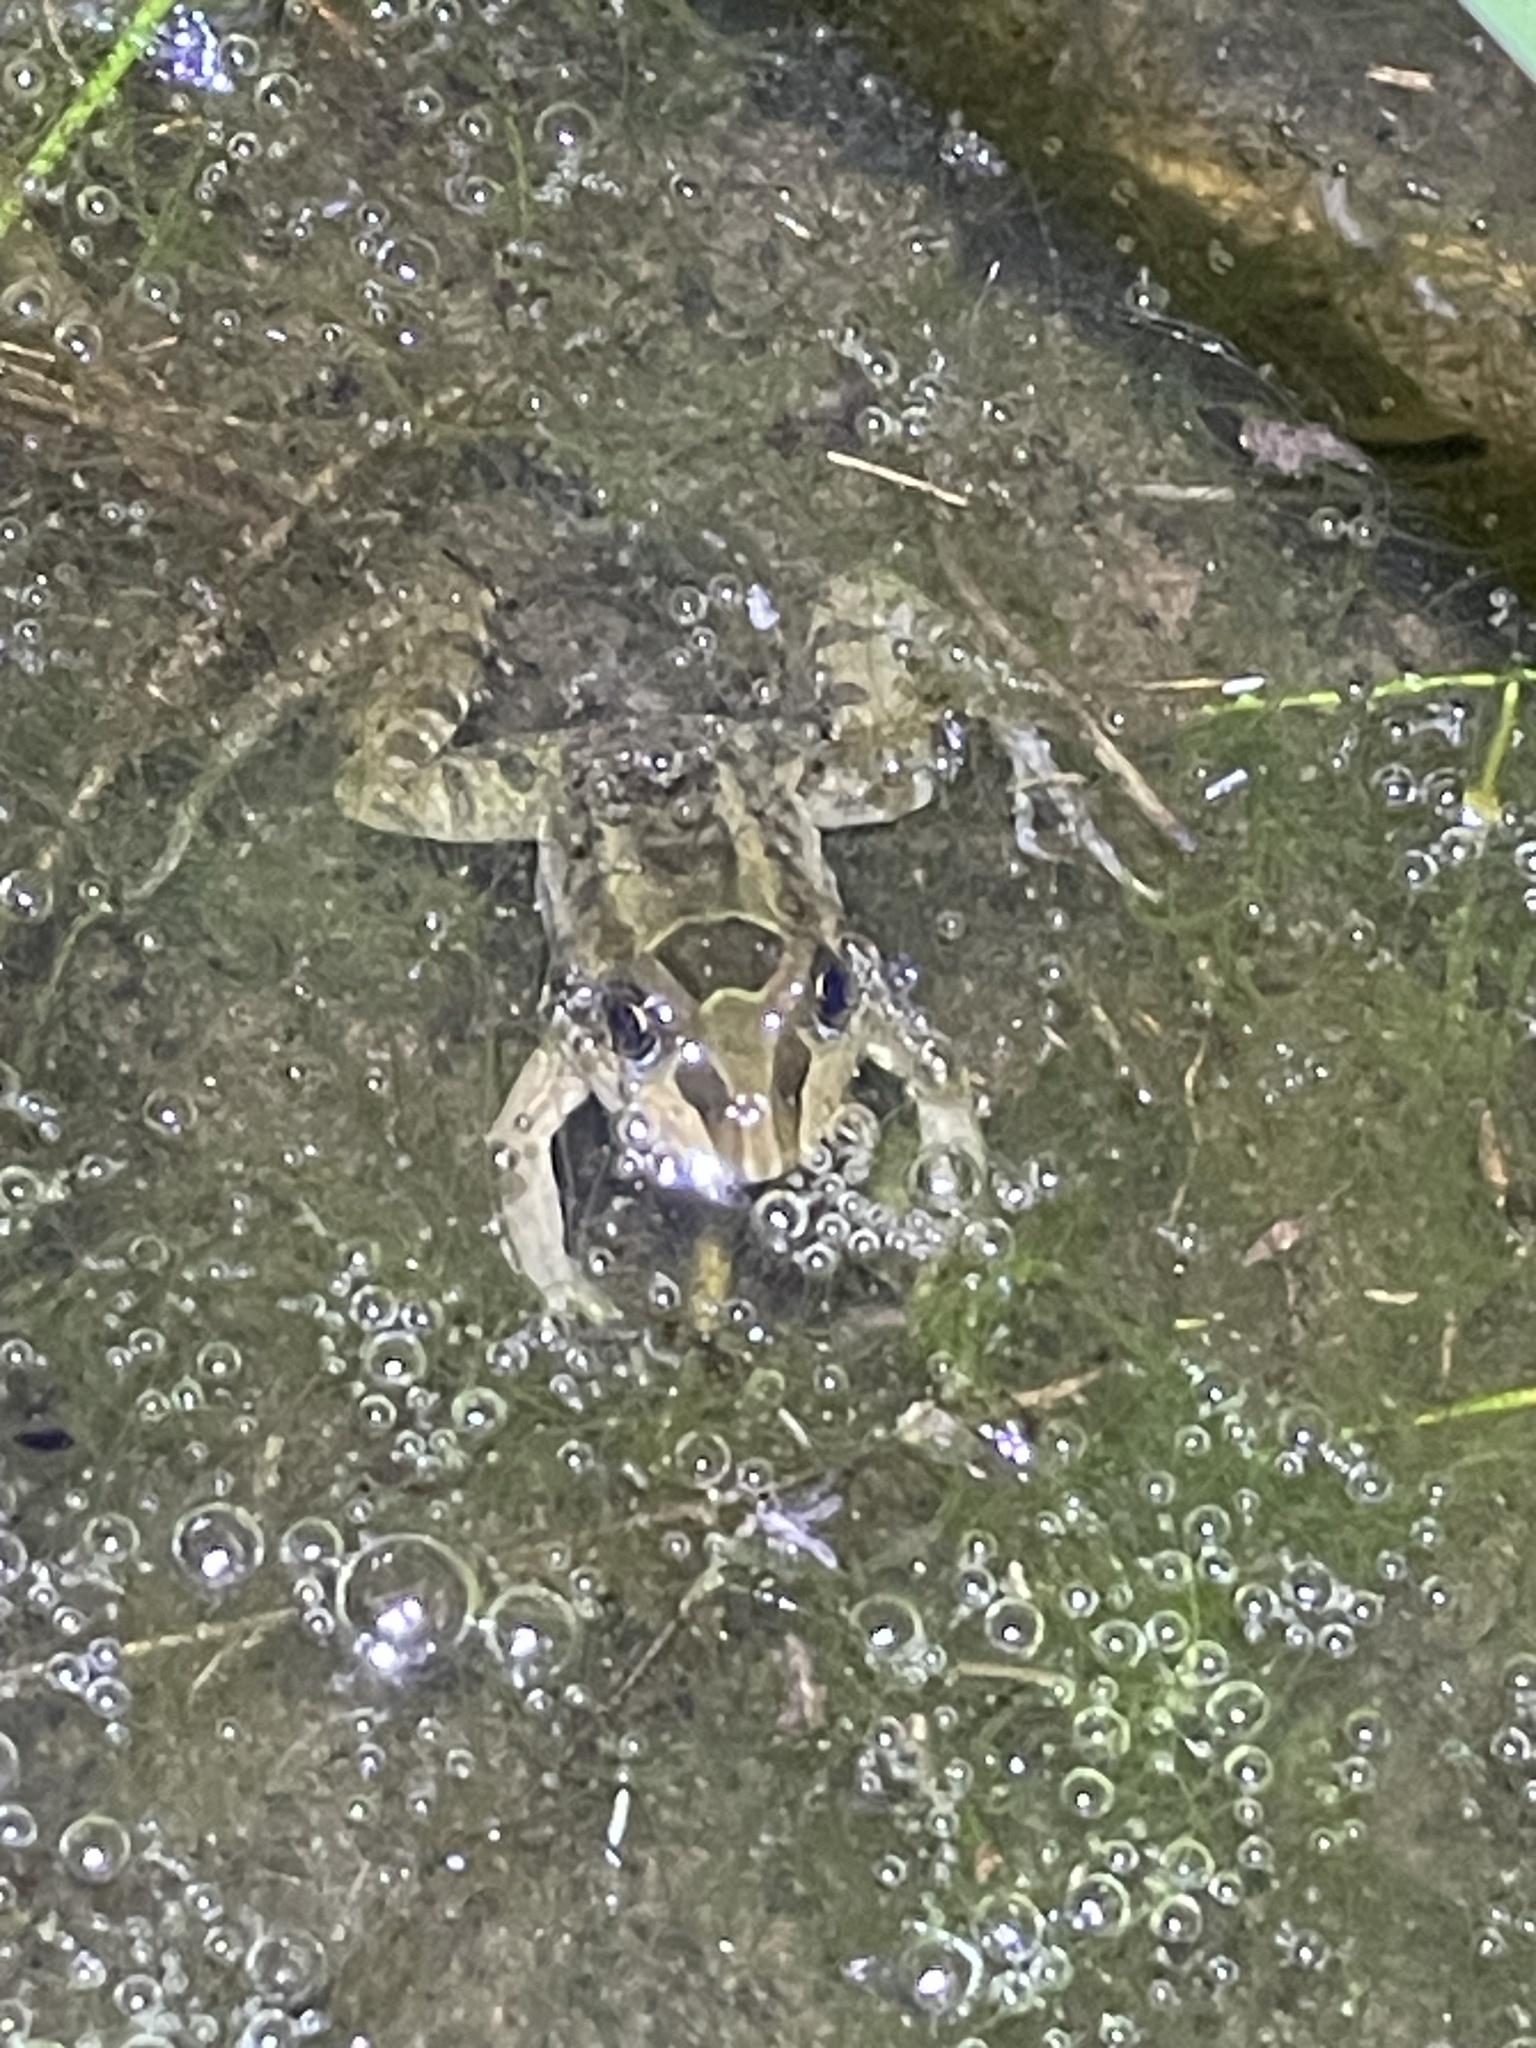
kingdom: Animalia
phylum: Chordata
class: Amphibia
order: Anura
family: Leptodactylidae
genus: Leptodactylus
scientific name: Leptodactylus luctator
